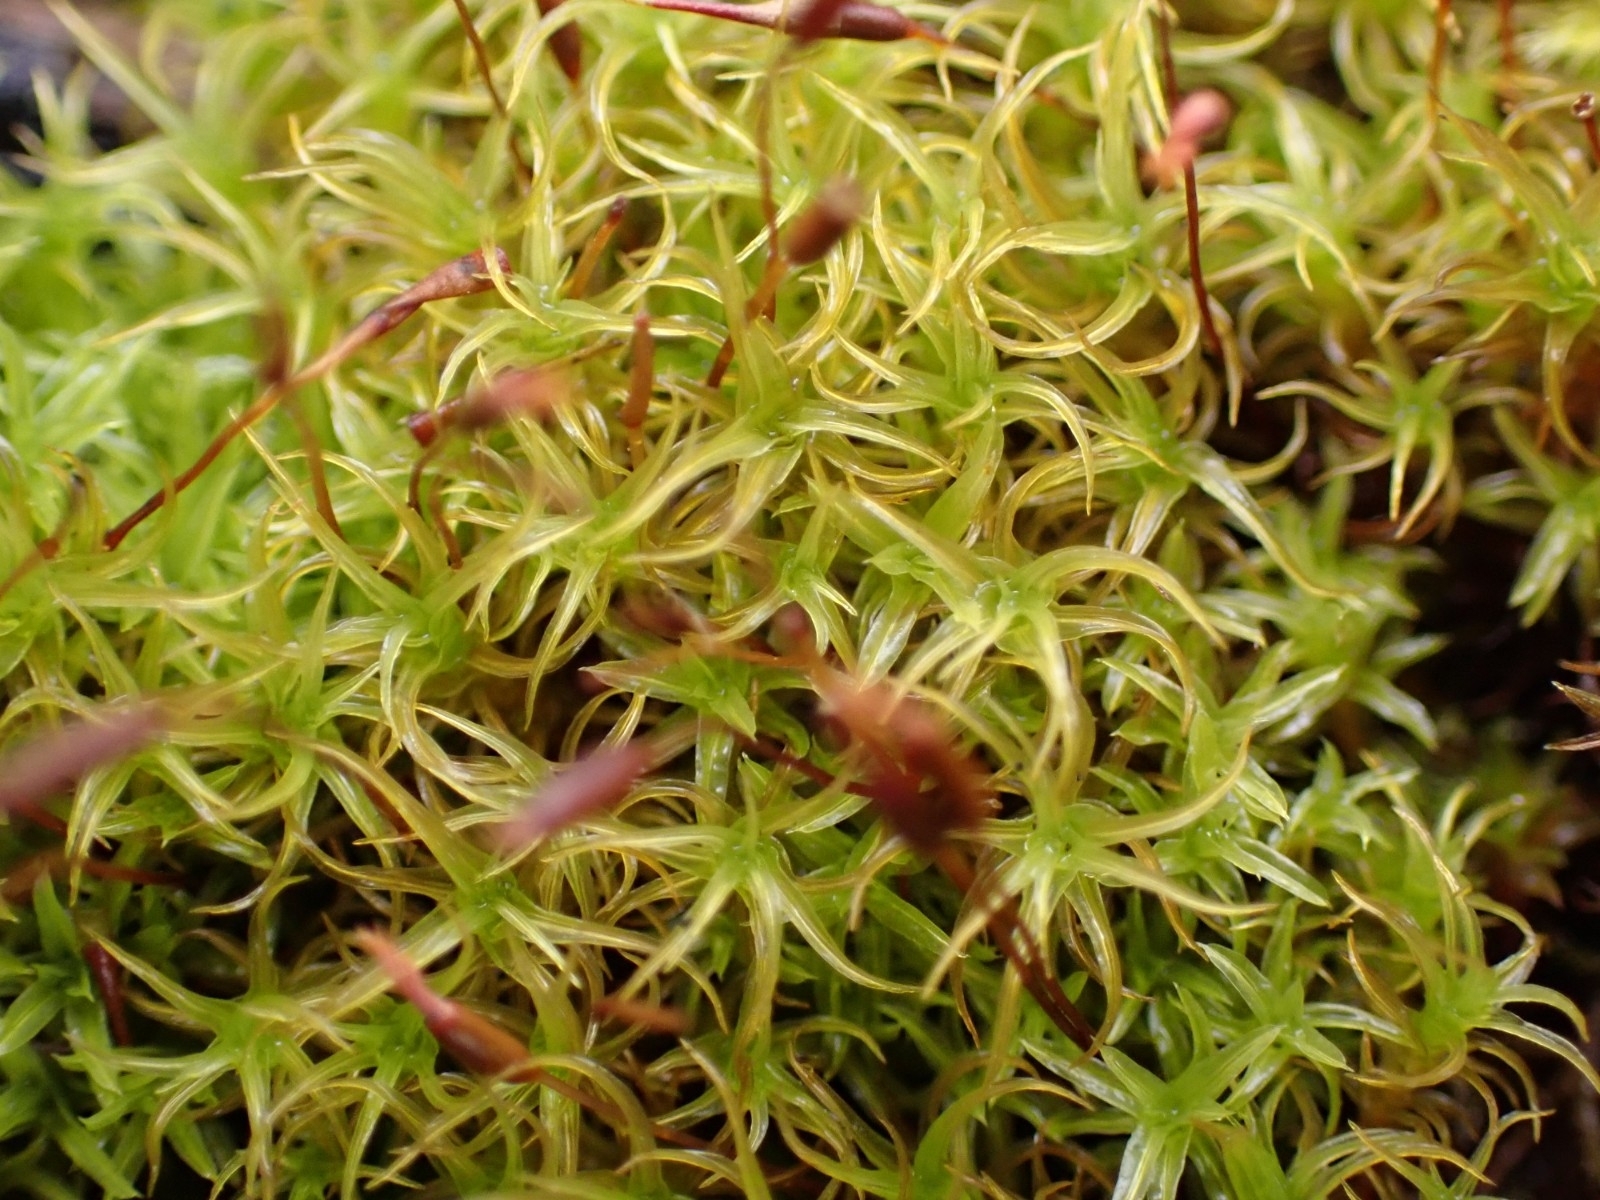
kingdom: Plantae
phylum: Bryophyta
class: Bryopsida
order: Pottiales
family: Pottiaceae
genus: Vinealobryum
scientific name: Vinealobryum insulanum
